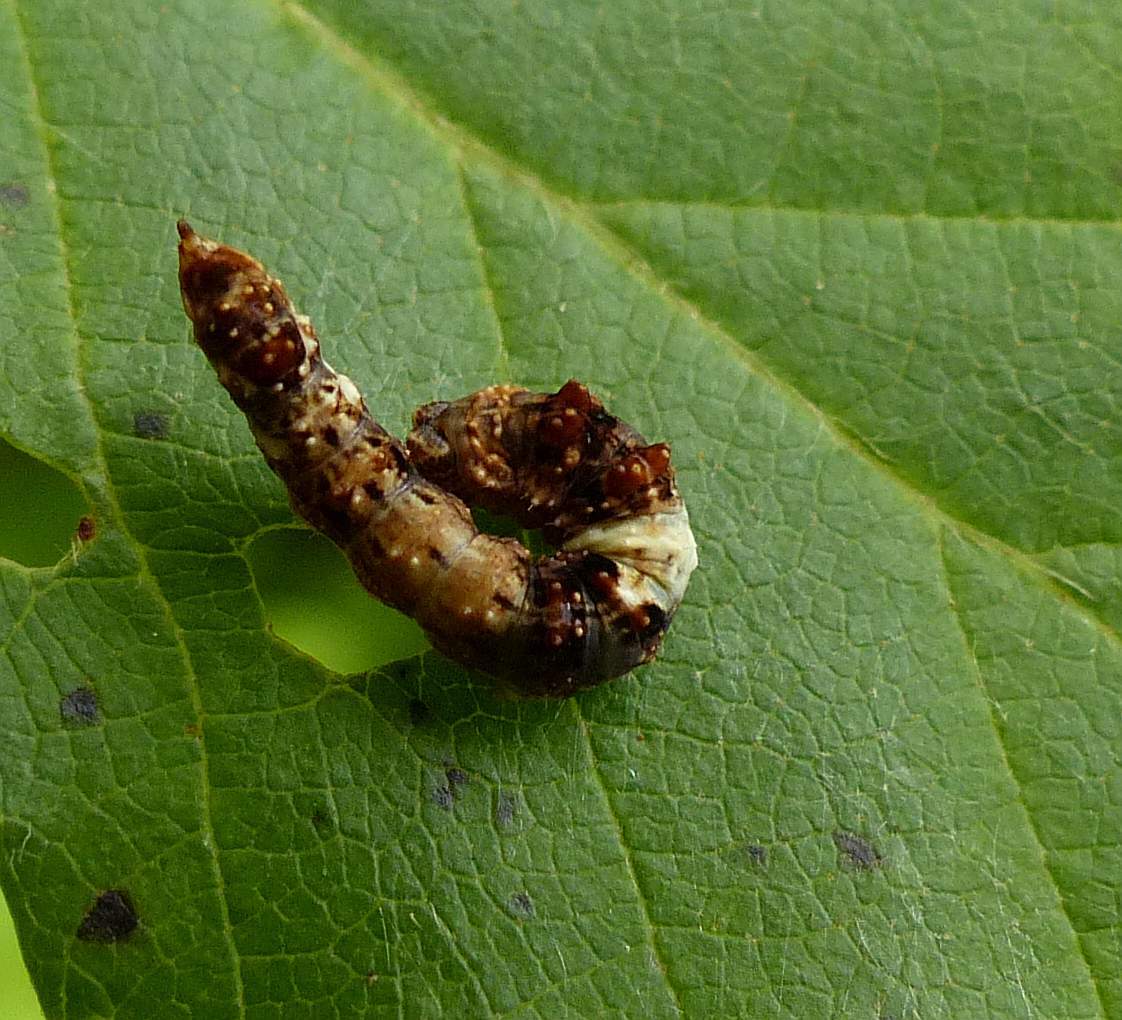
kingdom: Animalia
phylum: Arthropoda
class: Insecta
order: Lepidoptera
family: Drepanidae
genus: Falcaria
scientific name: Falcaria bilineata
